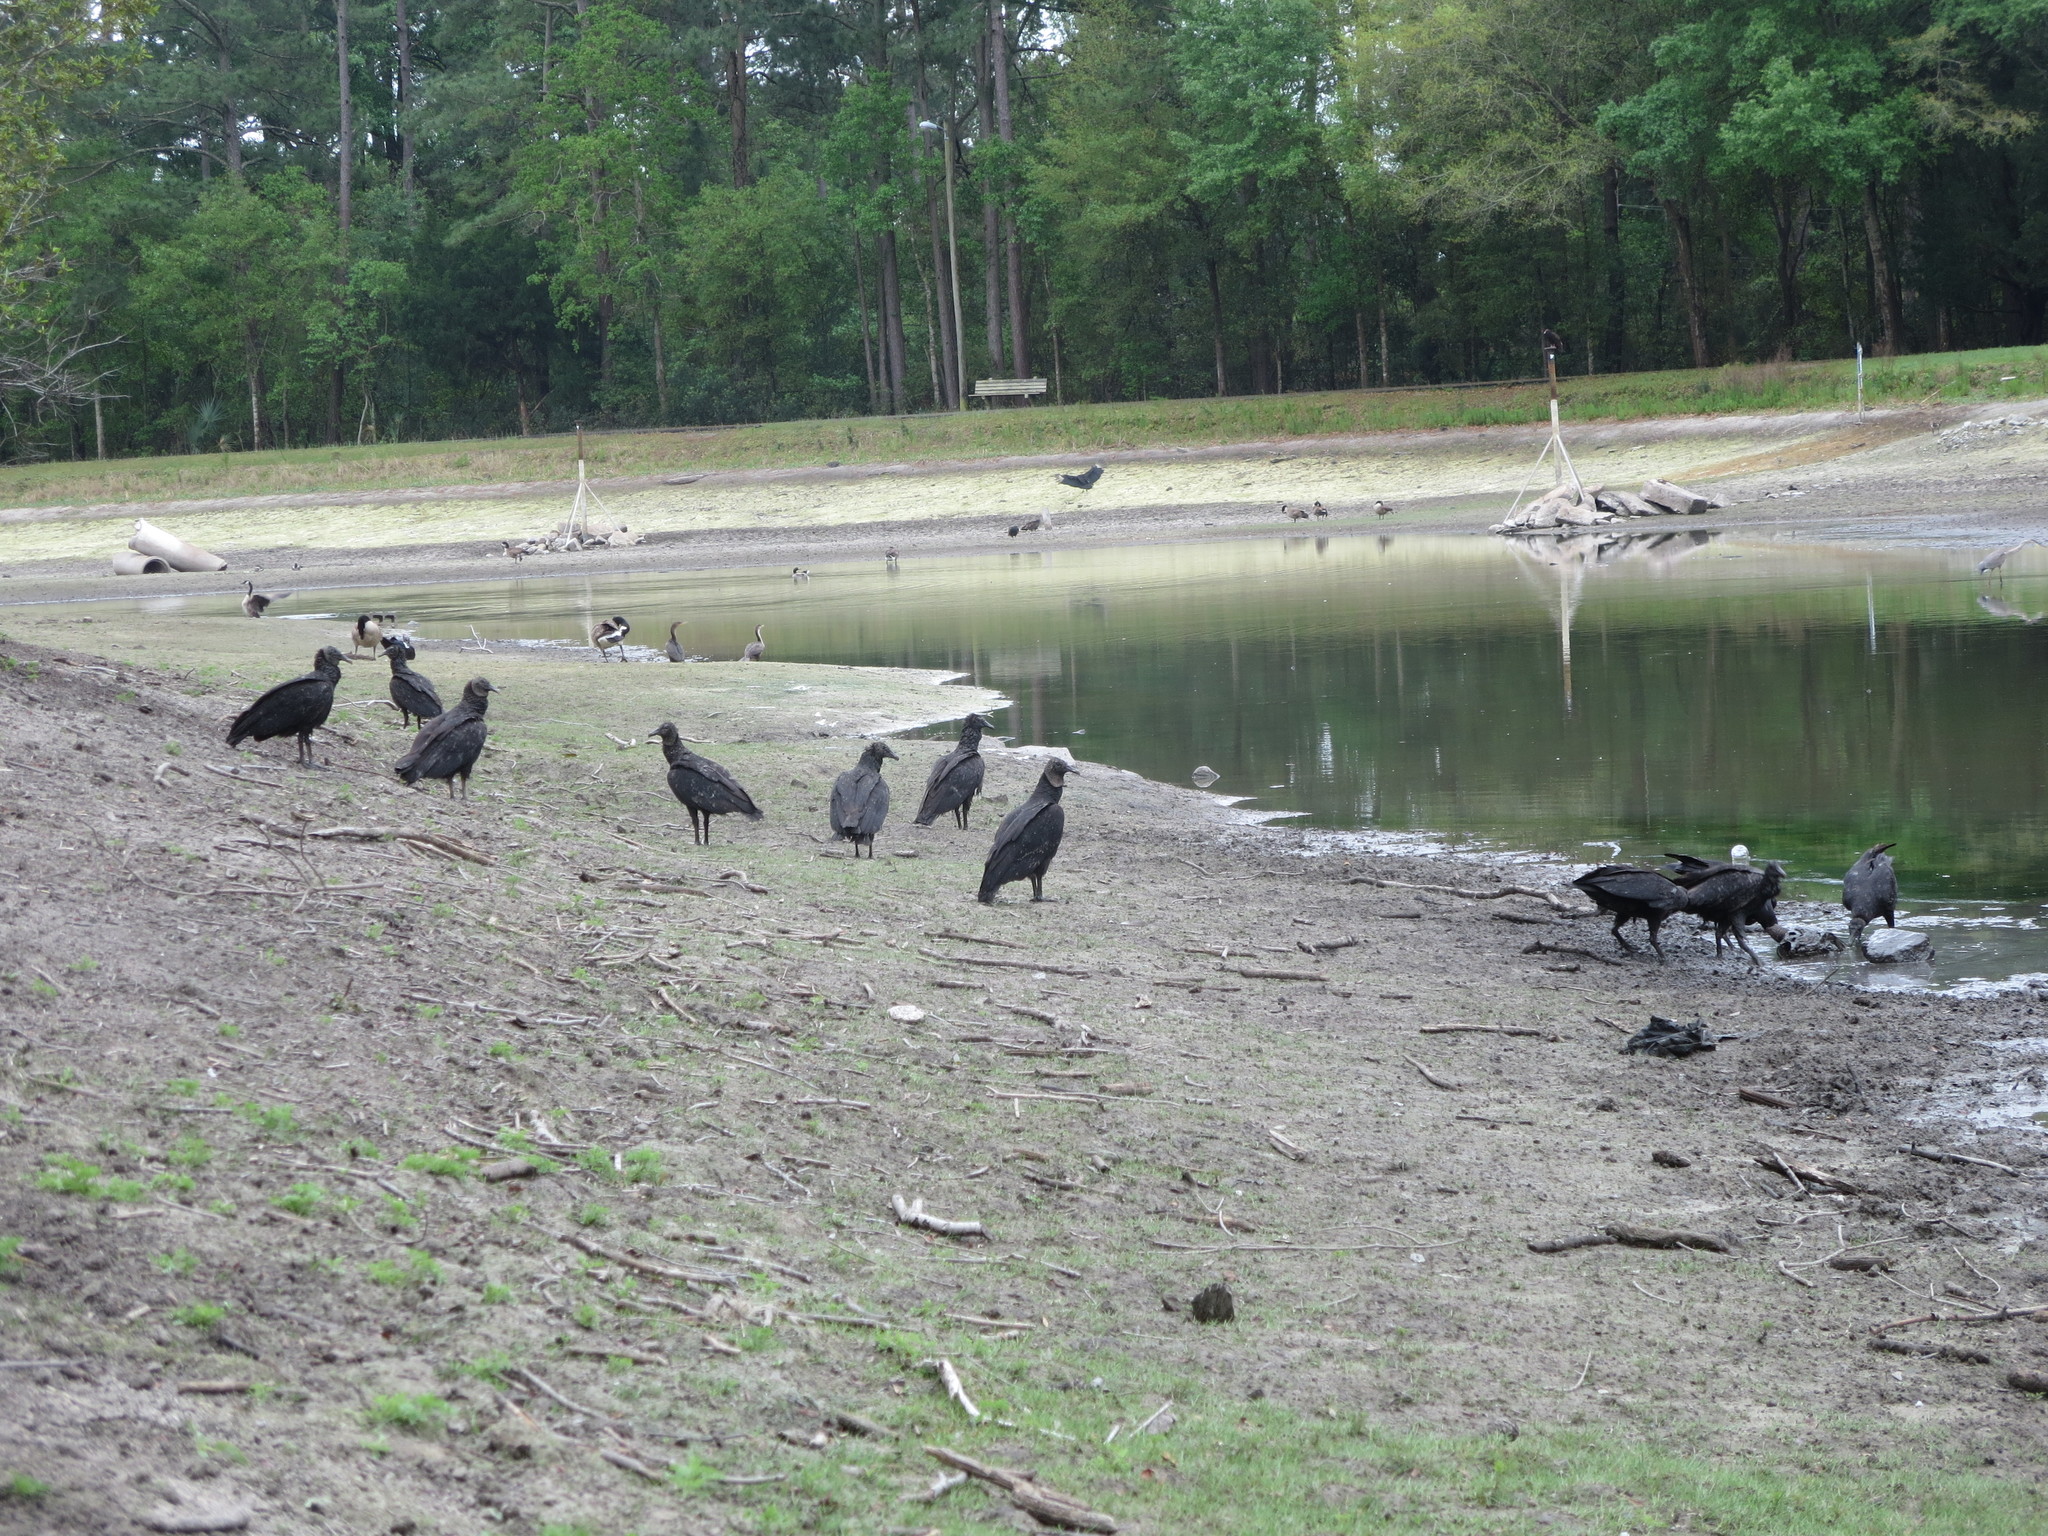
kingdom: Animalia
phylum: Chordata
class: Aves
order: Accipitriformes
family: Cathartidae
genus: Coragyps
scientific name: Coragyps atratus
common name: Black vulture
